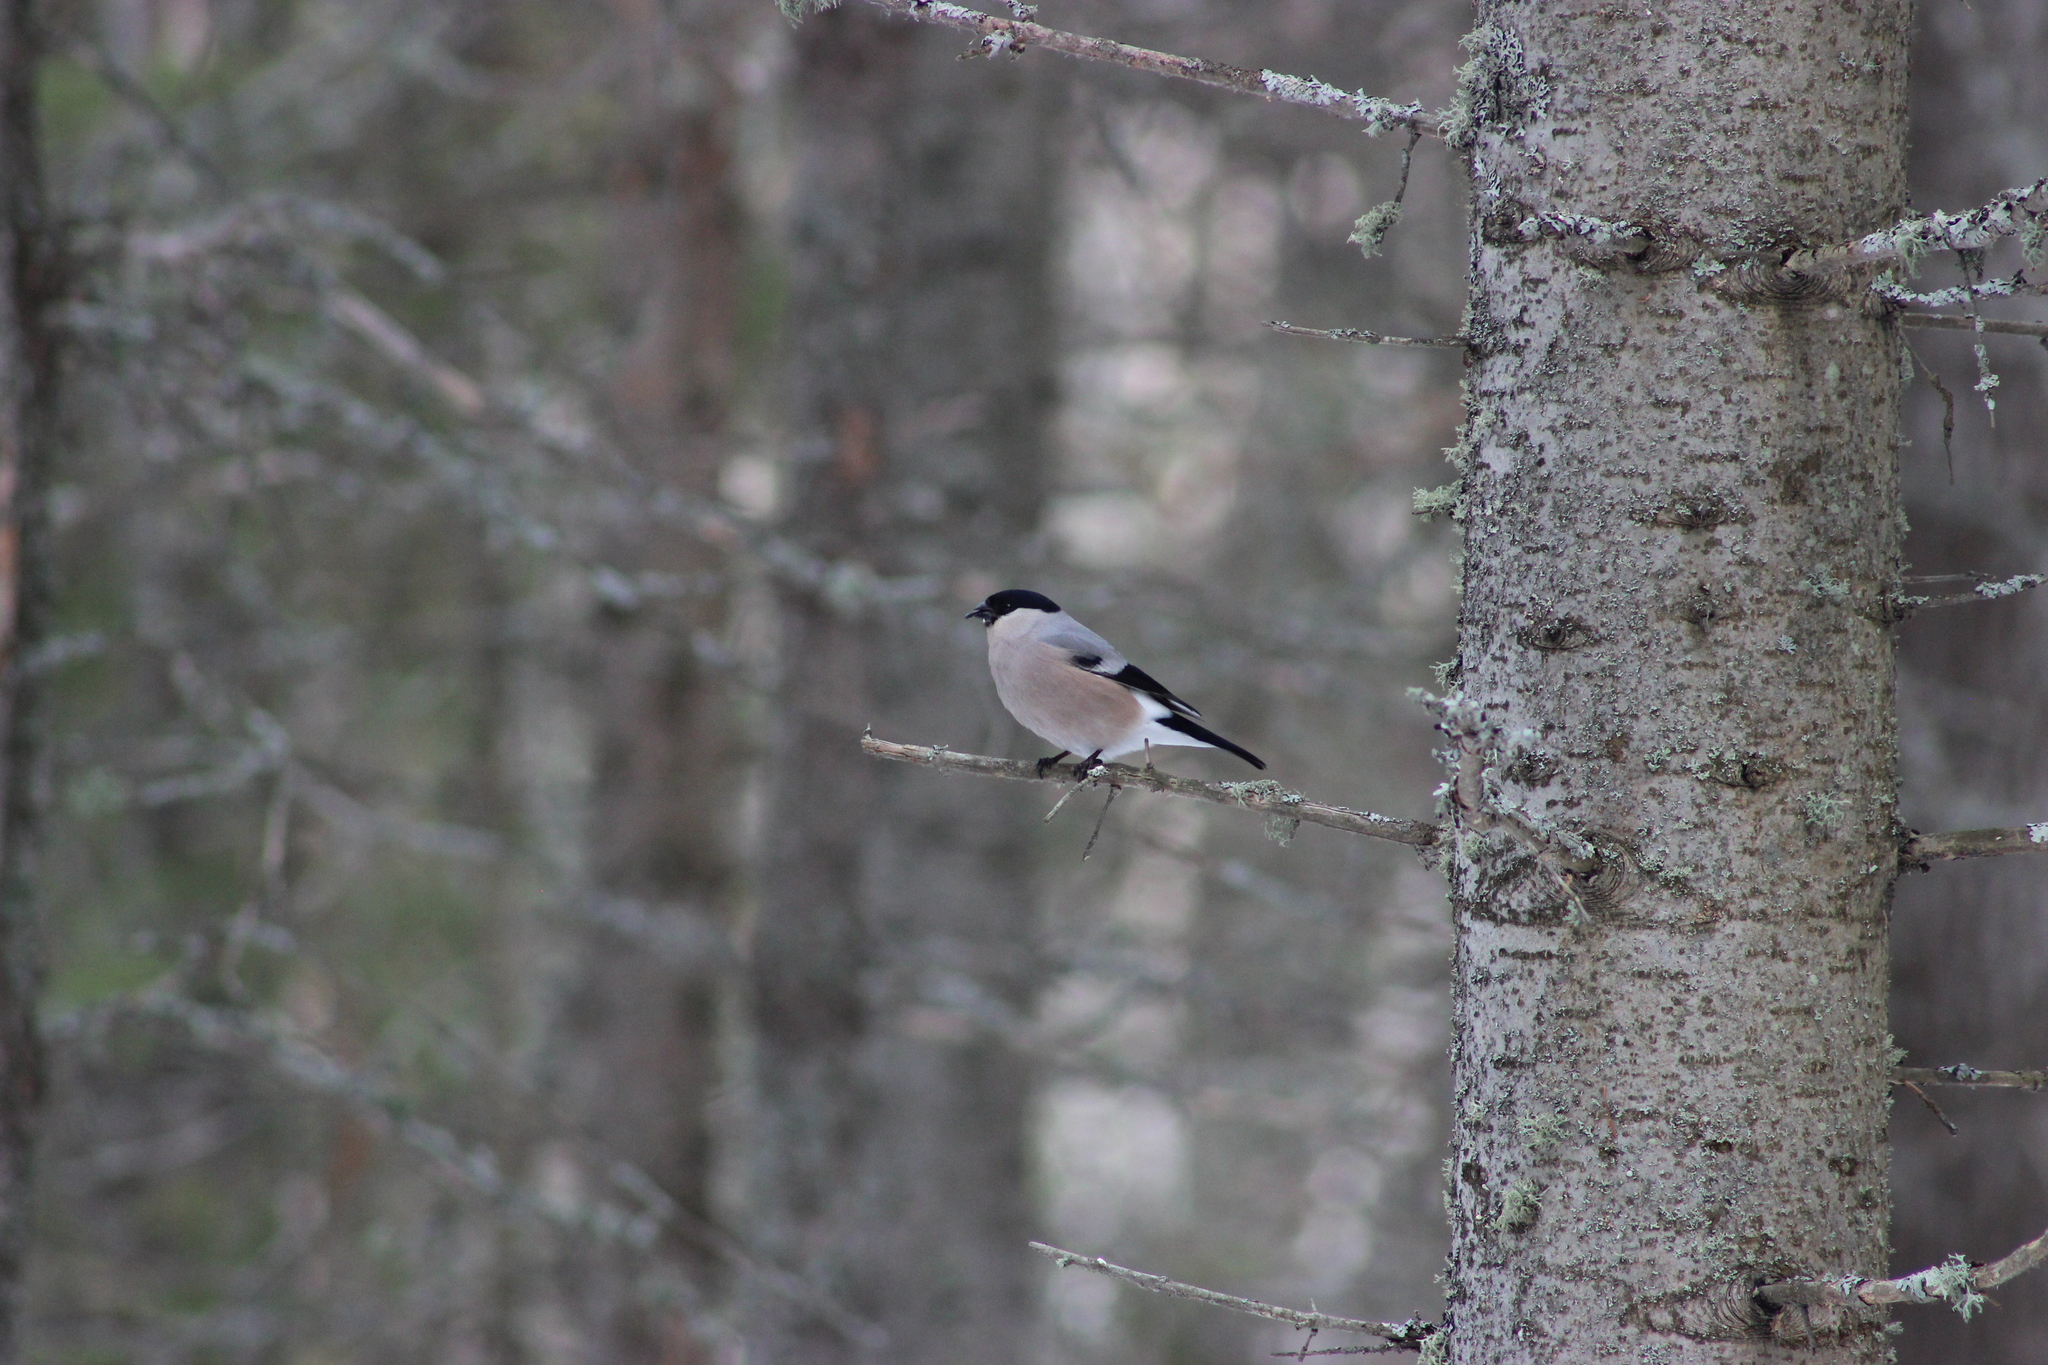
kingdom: Animalia
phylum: Chordata
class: Aves
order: Passeriformes
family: Fringillidae
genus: Pyrrhula
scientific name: Pyrrhula pyrrhula
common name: Eurasian bullfinch
